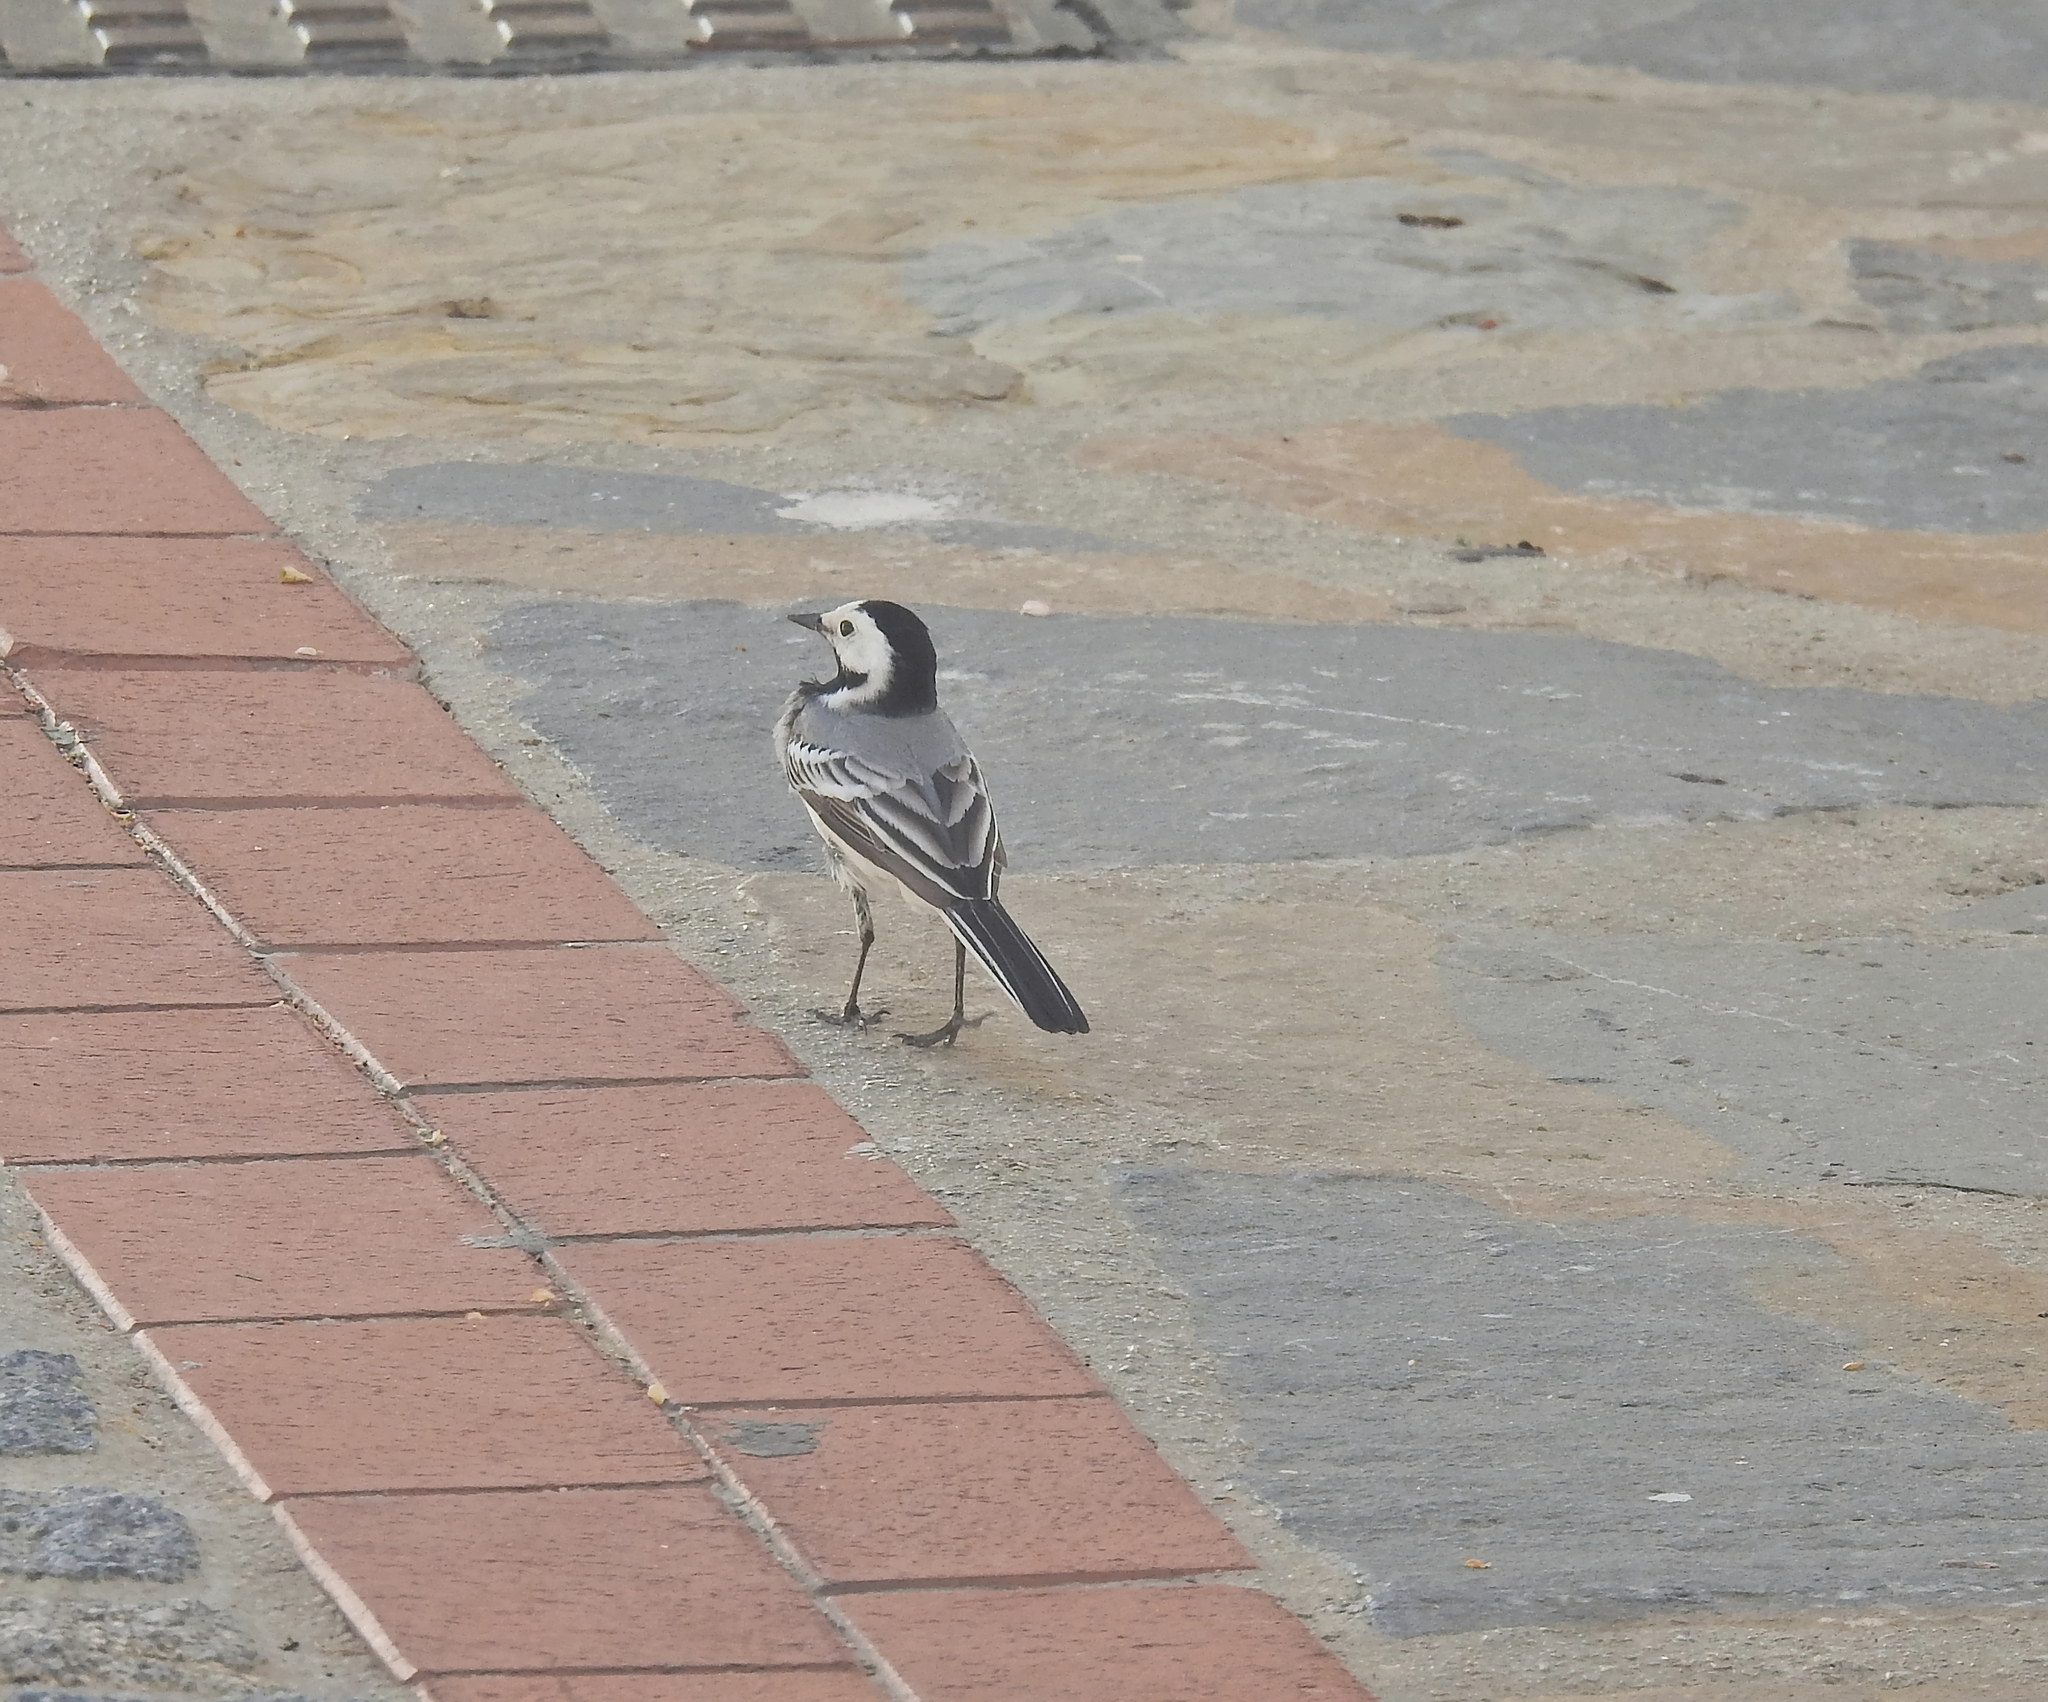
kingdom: Animalia
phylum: Chordata
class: Aves
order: Passeriformes
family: Motacillidae
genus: Motacilla
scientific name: Motacilla alba
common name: White wagtail
